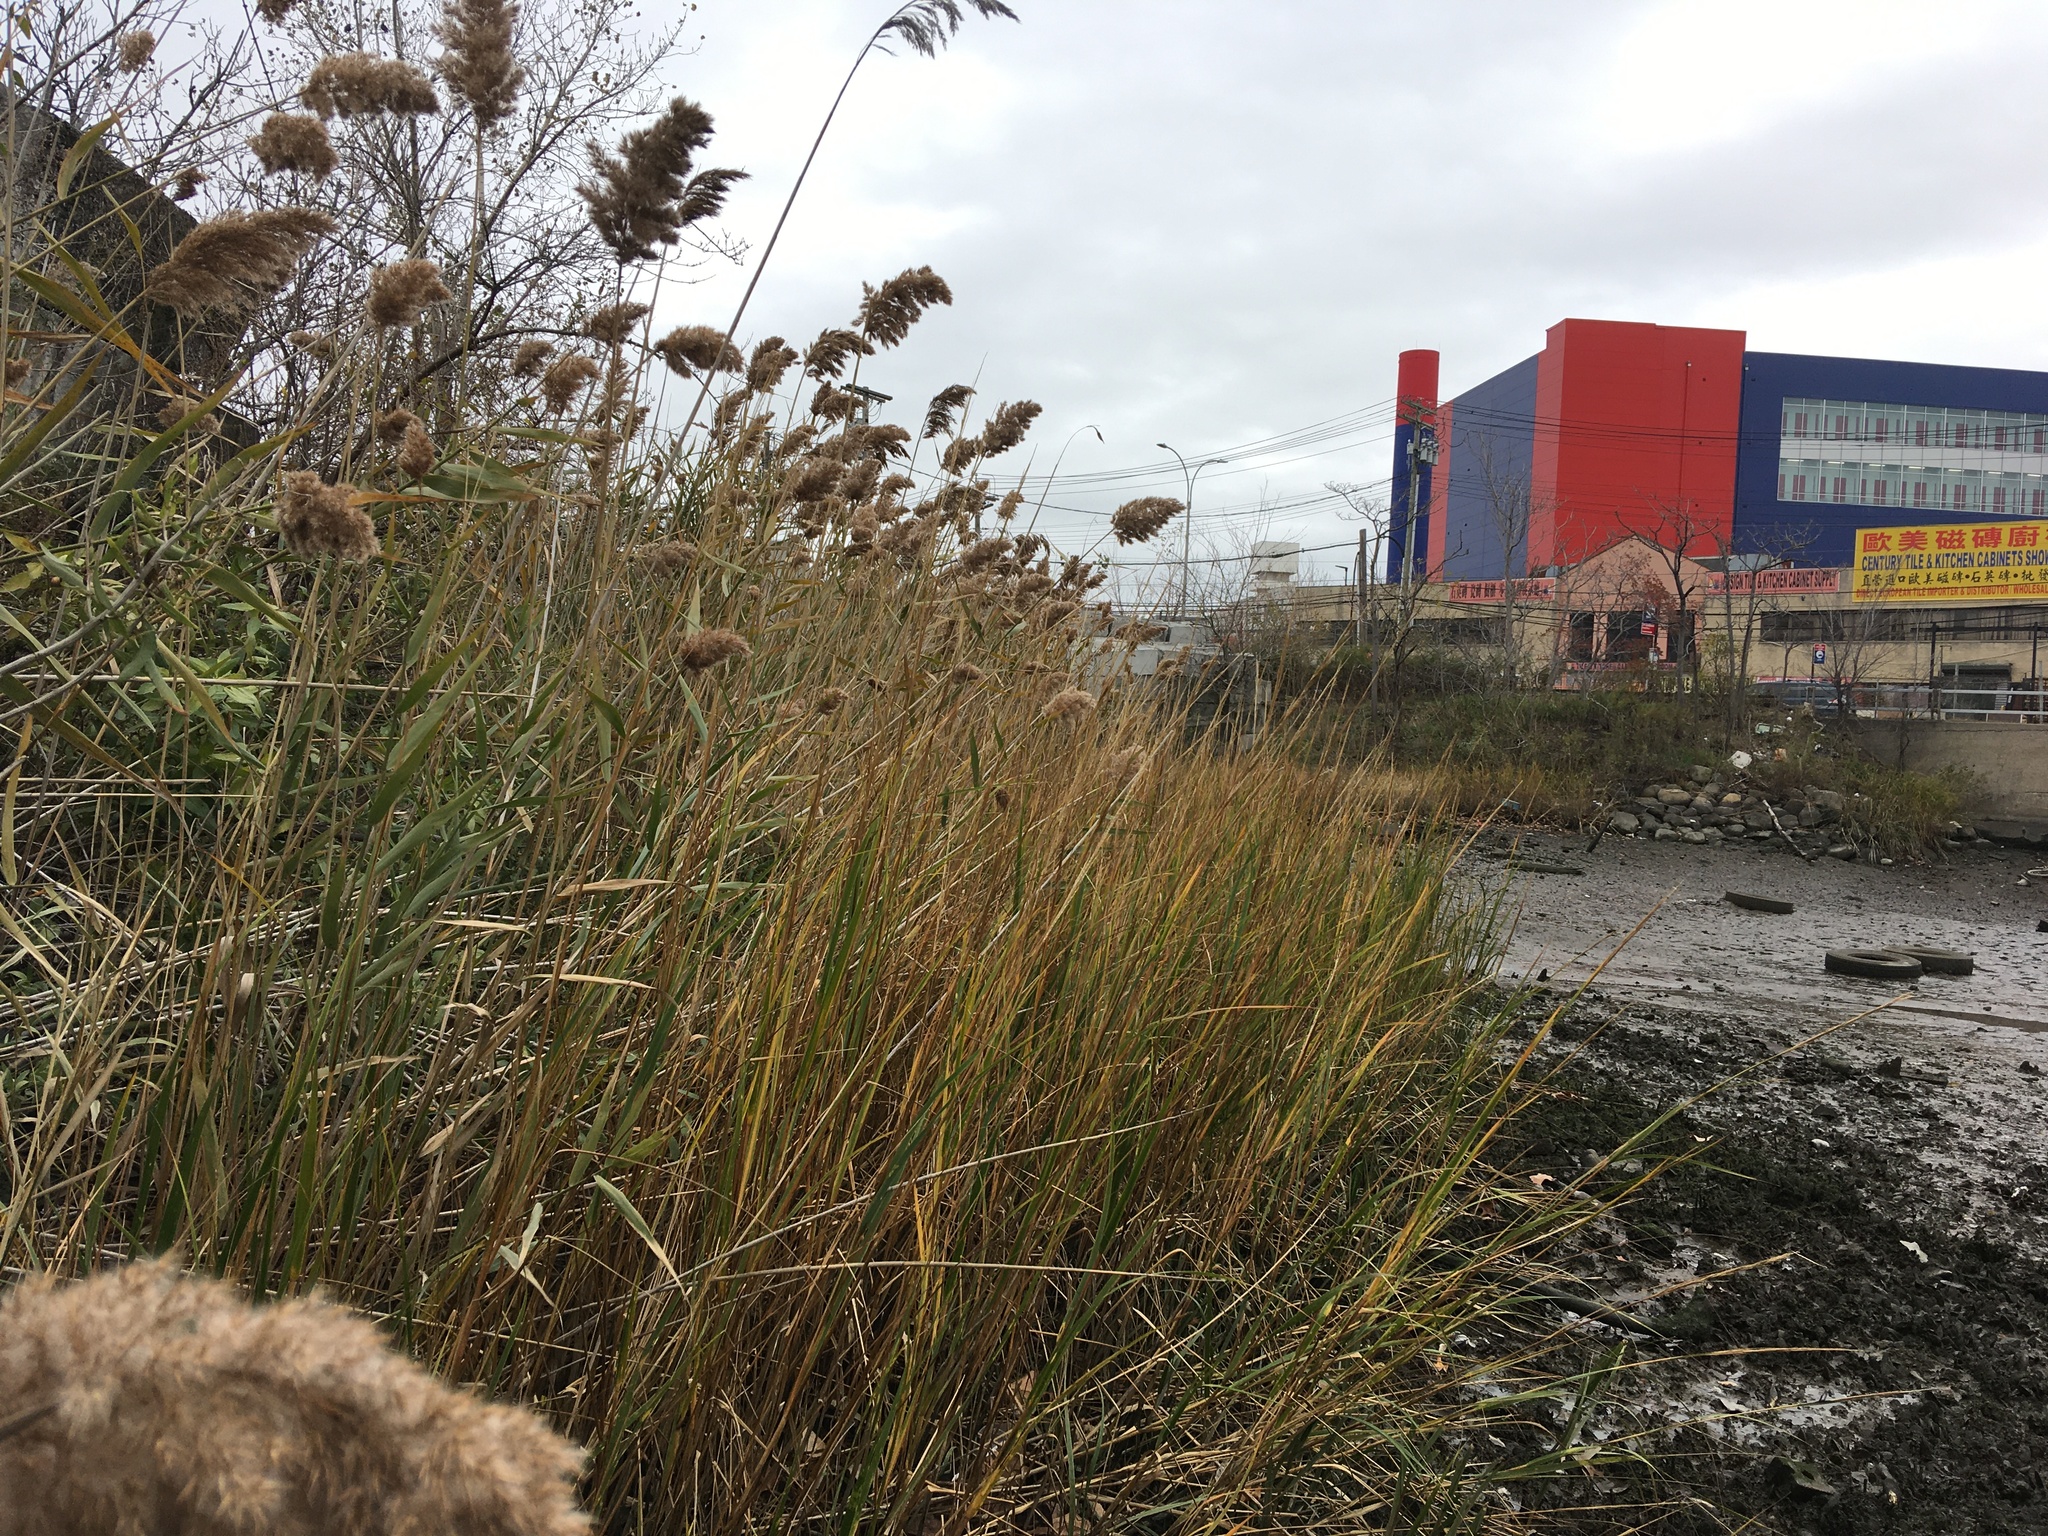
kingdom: Plantae
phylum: Tracheophyta
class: Liliopsida
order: Poales
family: Poaceae
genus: Phragmites
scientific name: Phragmites australis
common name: Common reed
